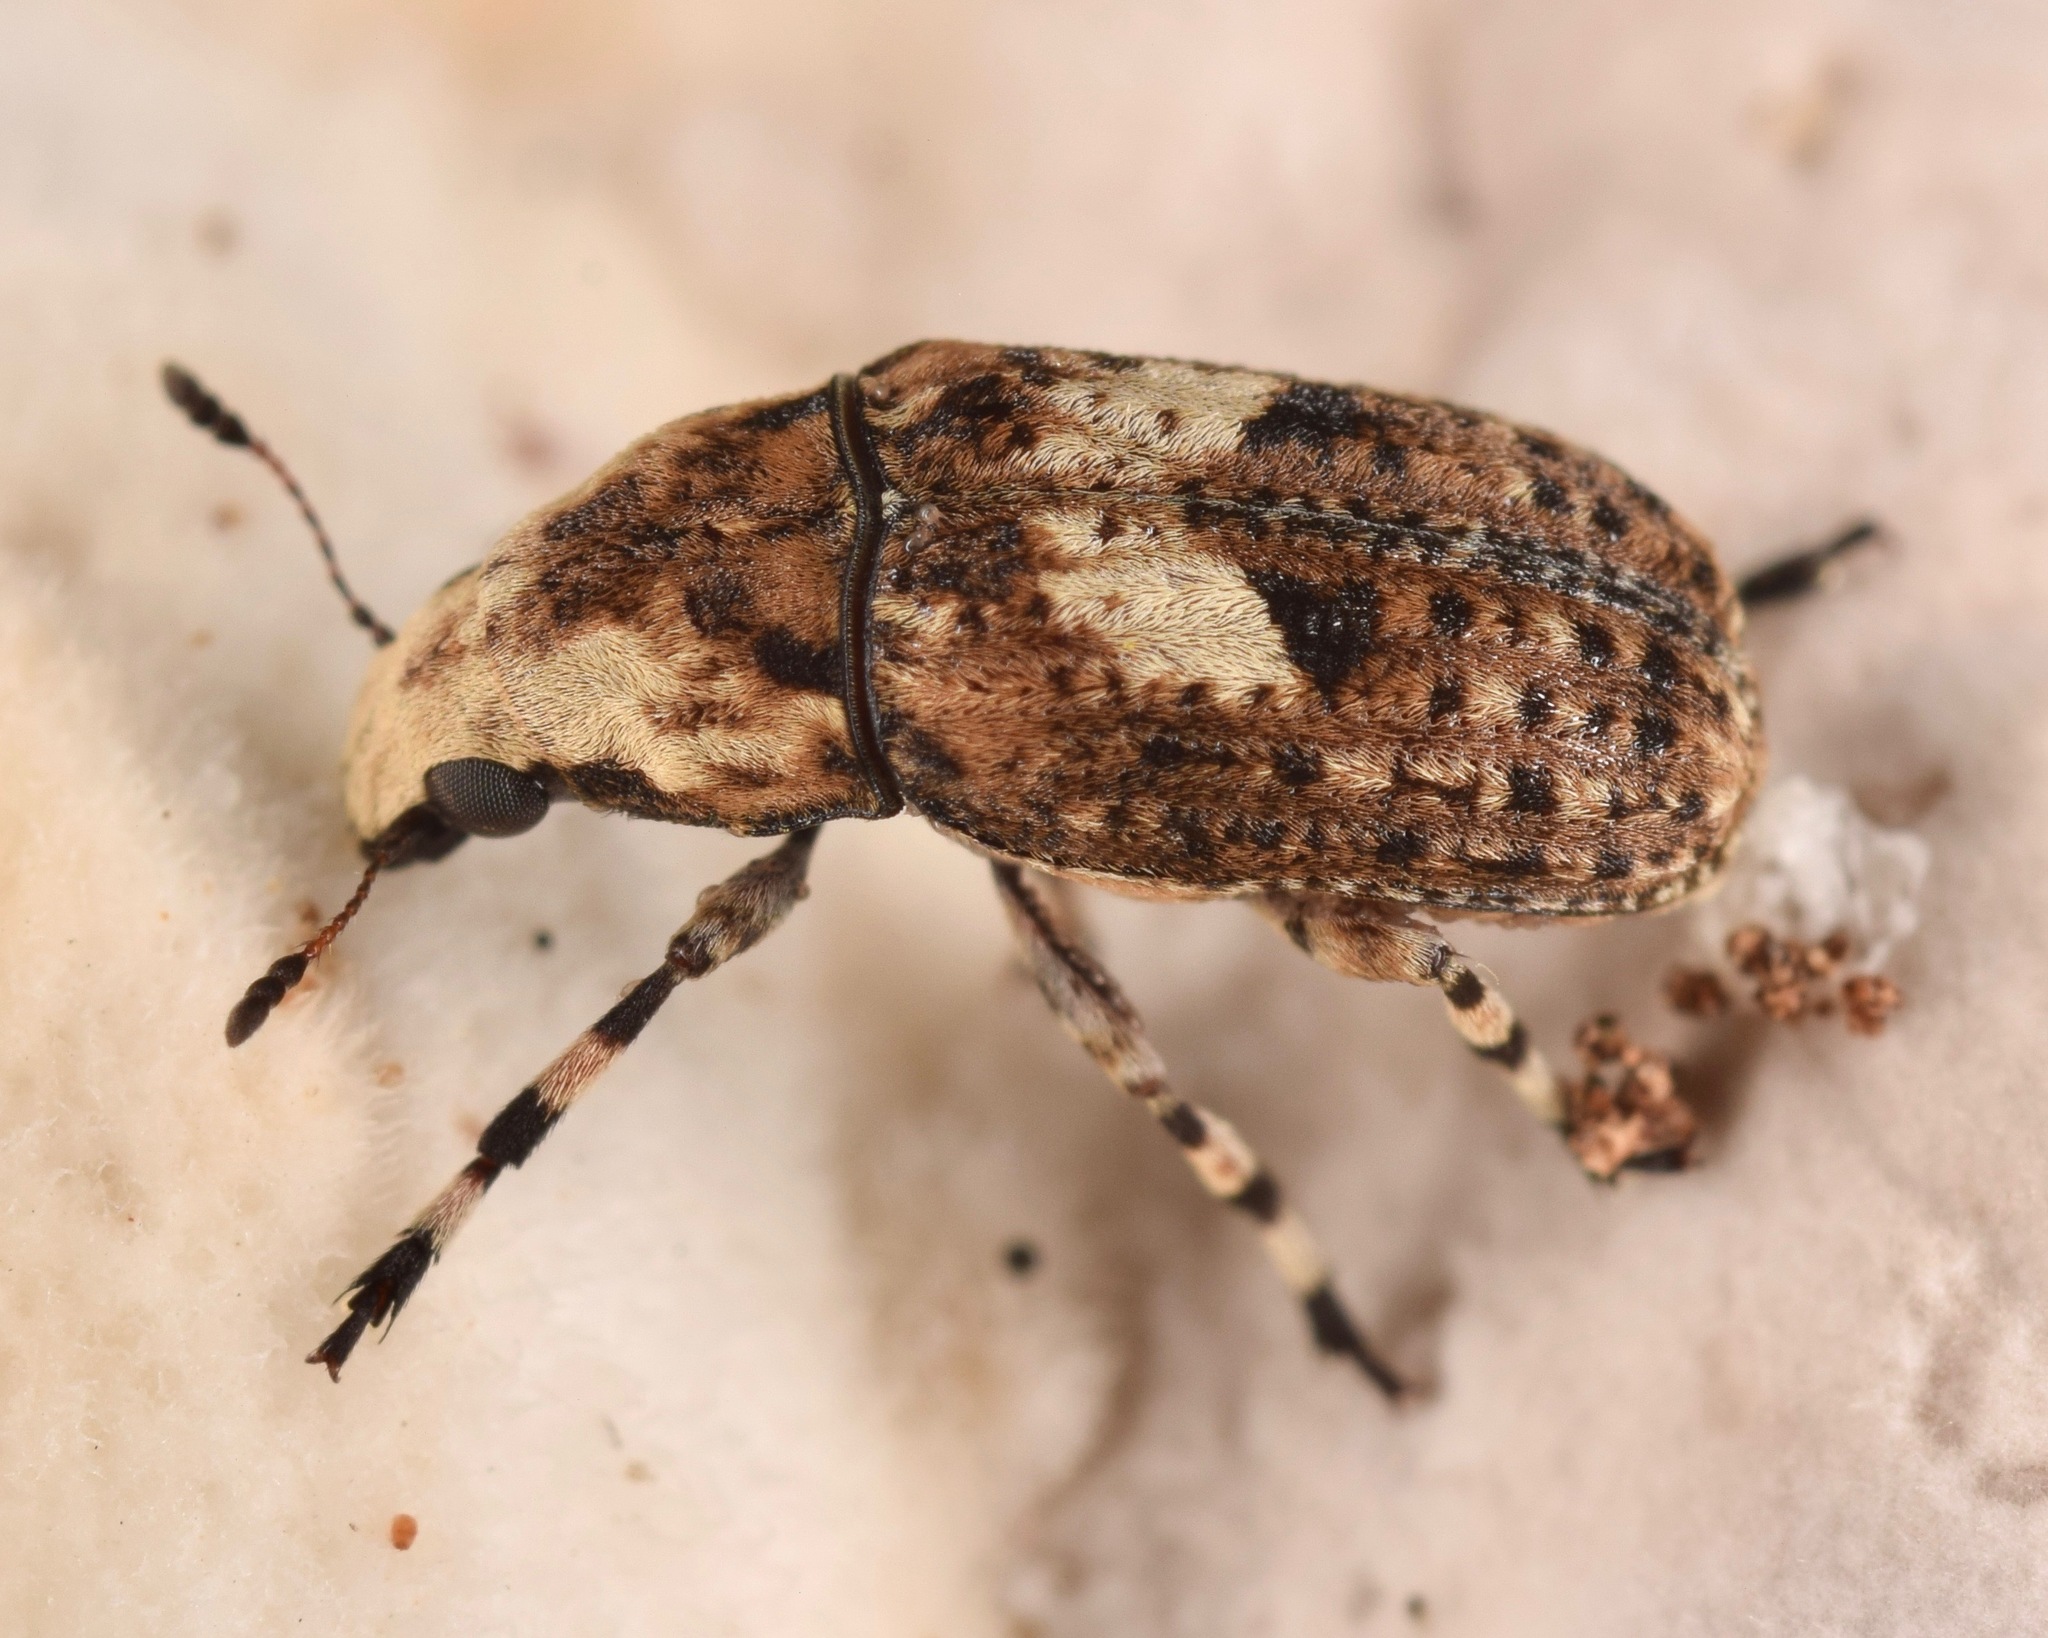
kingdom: Animalia
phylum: Arthropoda
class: Insecta
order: Coleoptera
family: Anthribidae
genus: Euparius
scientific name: Euparius marmoreus
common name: Marbled fungus weevil
